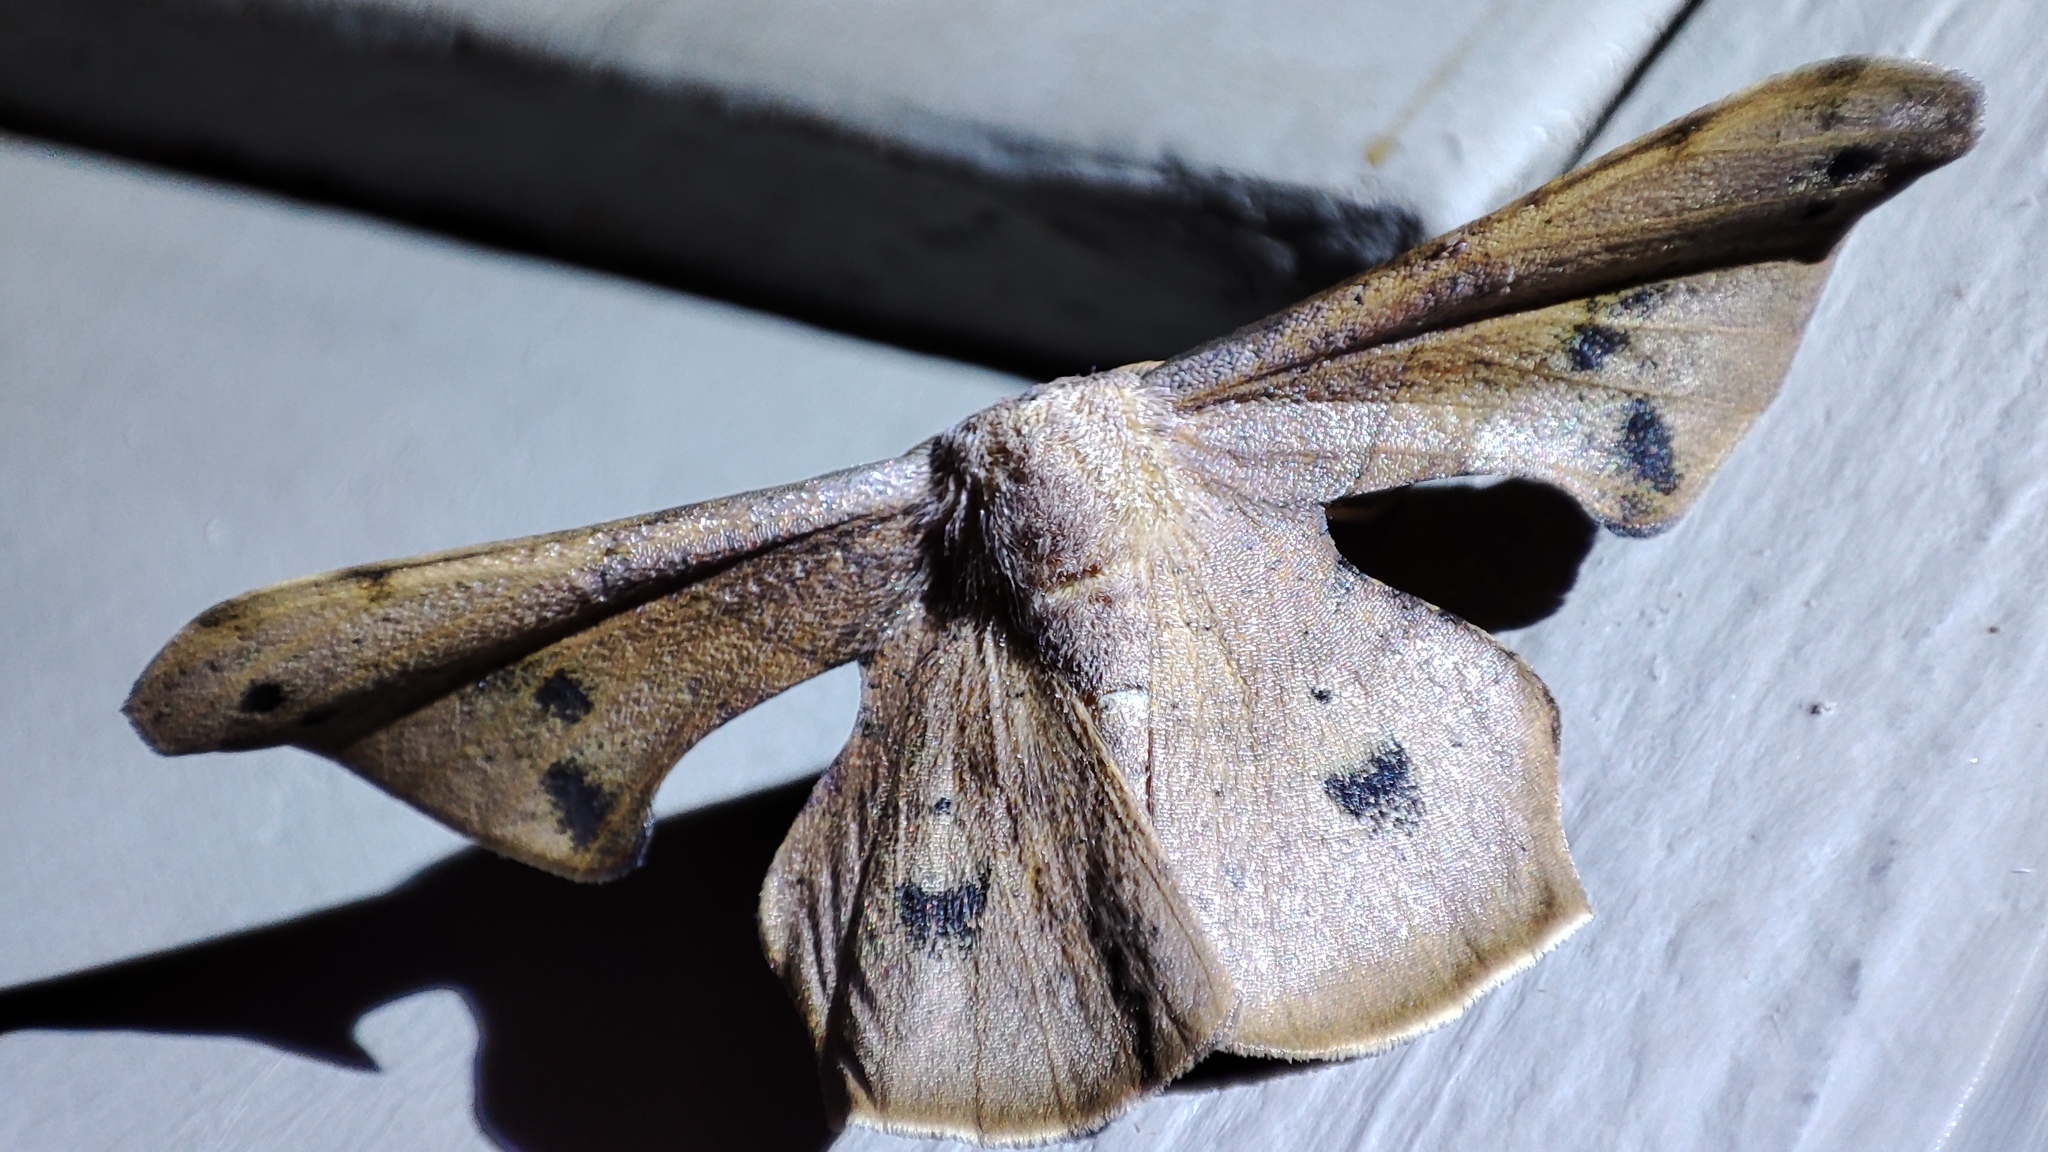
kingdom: Animalia
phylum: Arthropoda
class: Insecta
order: Lepidoptera
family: Geometridae
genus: Xenimpia
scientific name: Xenimpia maculosata
